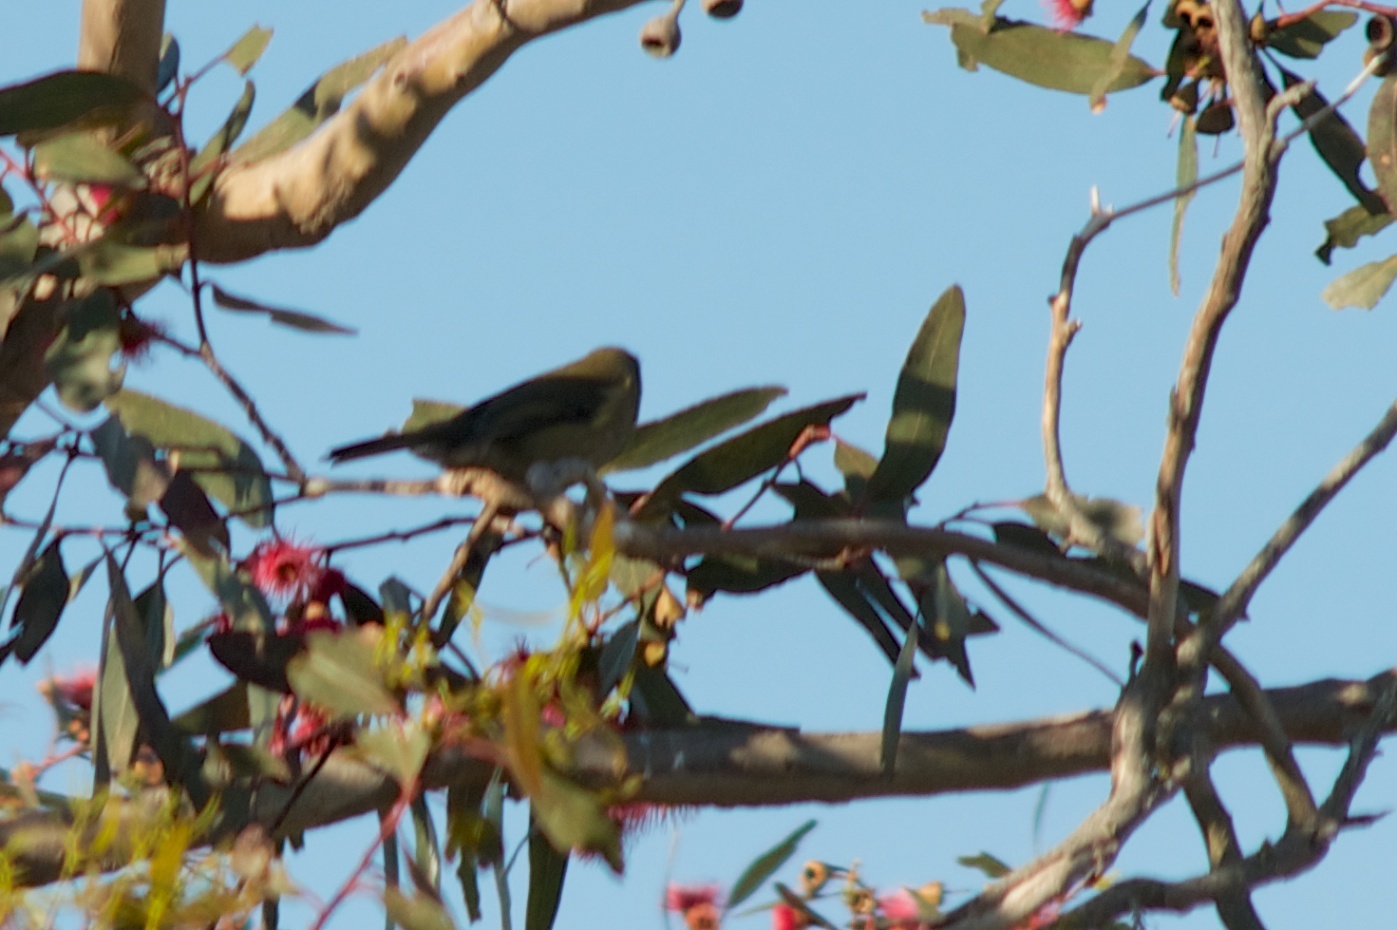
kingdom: Animalia
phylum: Chordata
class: Aves
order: Passeriformes
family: Meliphagidae
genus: Anthornis
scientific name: Anthornis melanura
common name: New zealand bellbird
